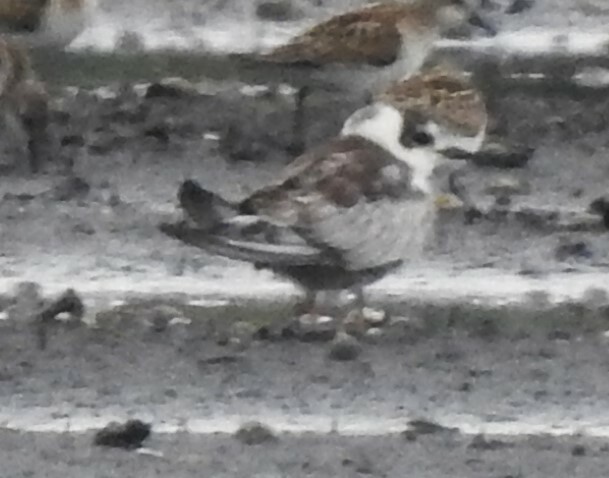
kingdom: Animalia
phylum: Chordata
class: Aves
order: Charadriiformes
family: Laridae
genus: Chlidonias
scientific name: Chlidonias leucopterus
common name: White-winged tern
